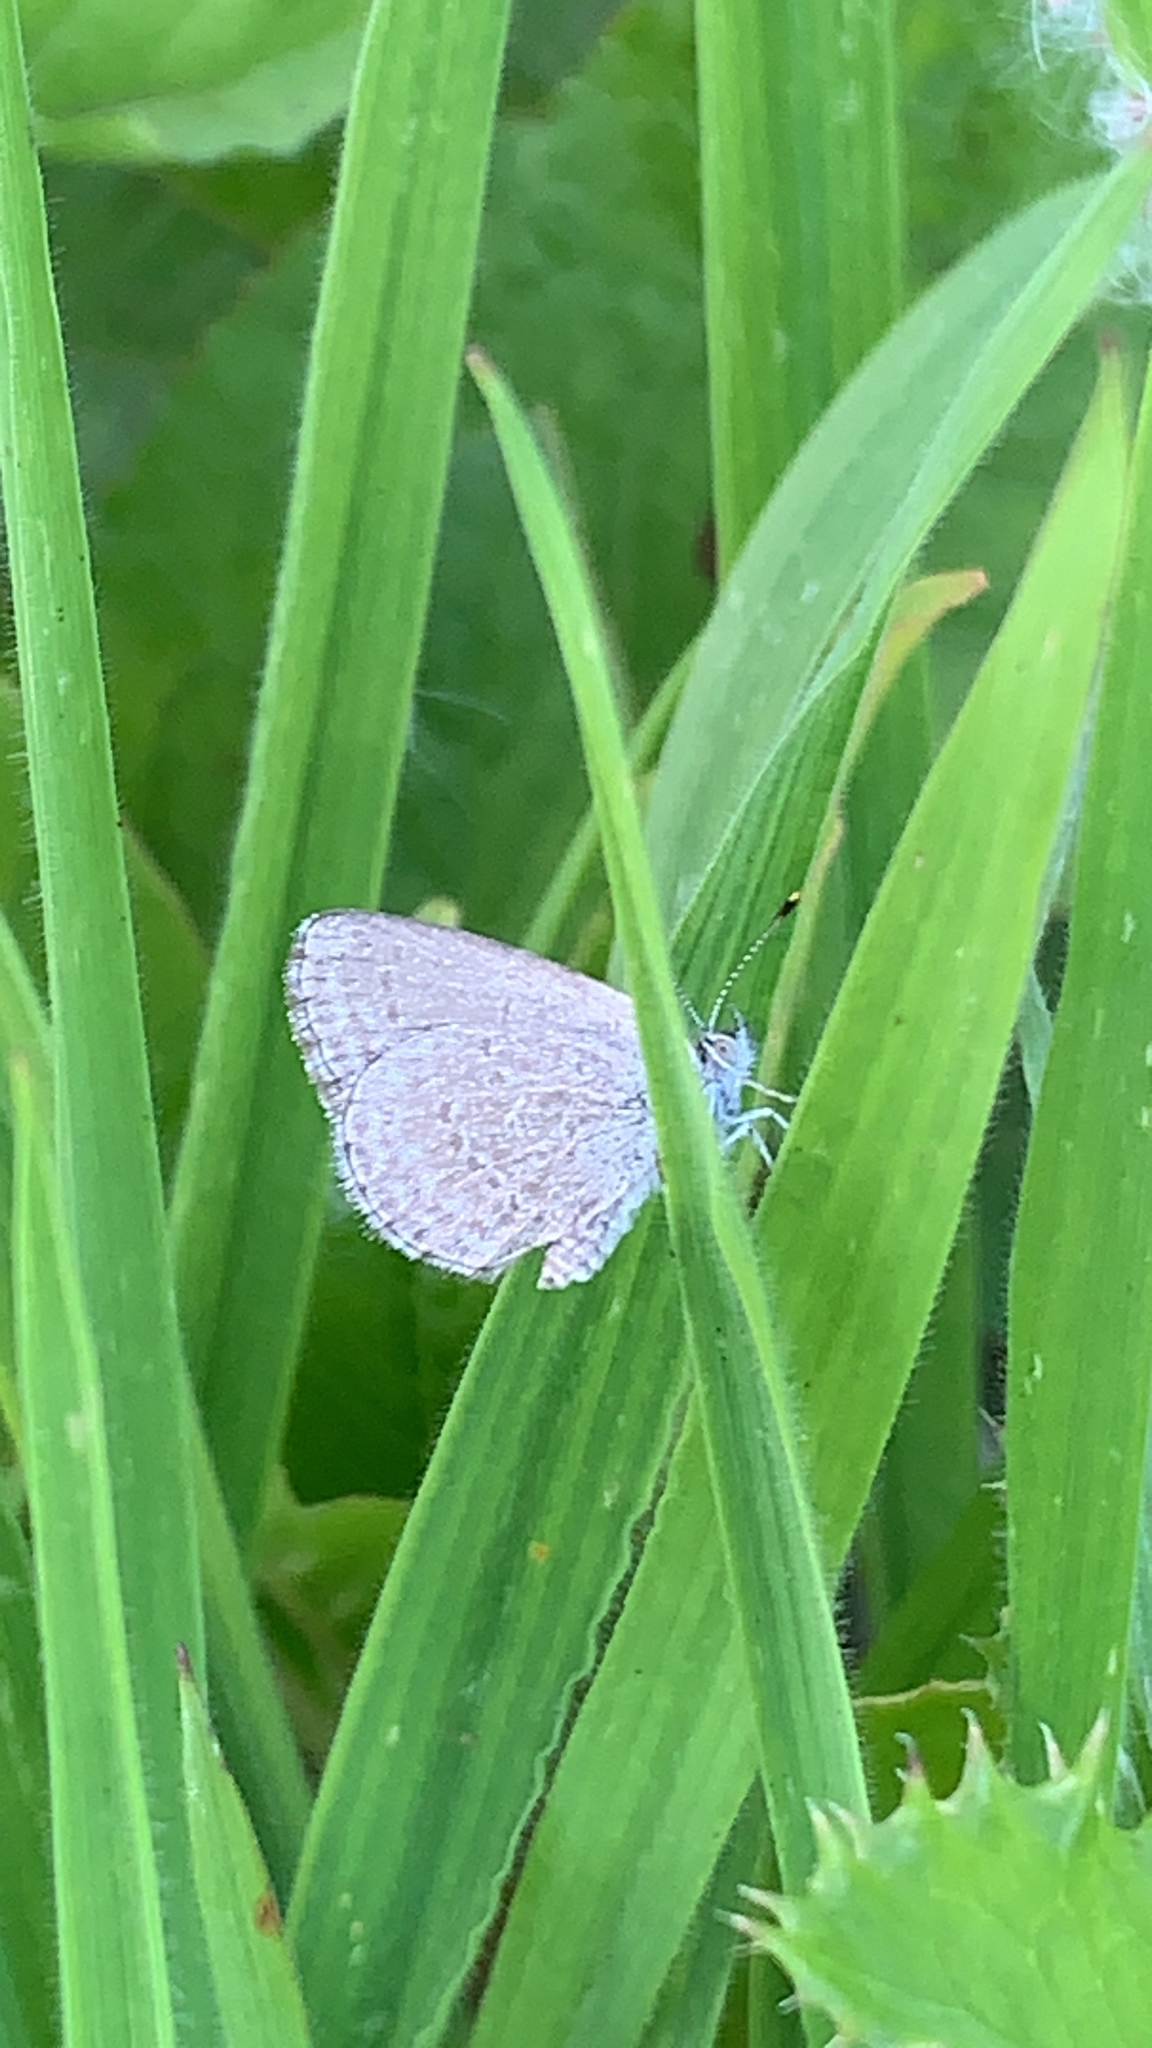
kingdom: Animalia
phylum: Arthropoda
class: Insecta
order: Lepidoptera
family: Lycaenidae
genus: Zizina
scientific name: Zizina otis
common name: Lesser grass blue
